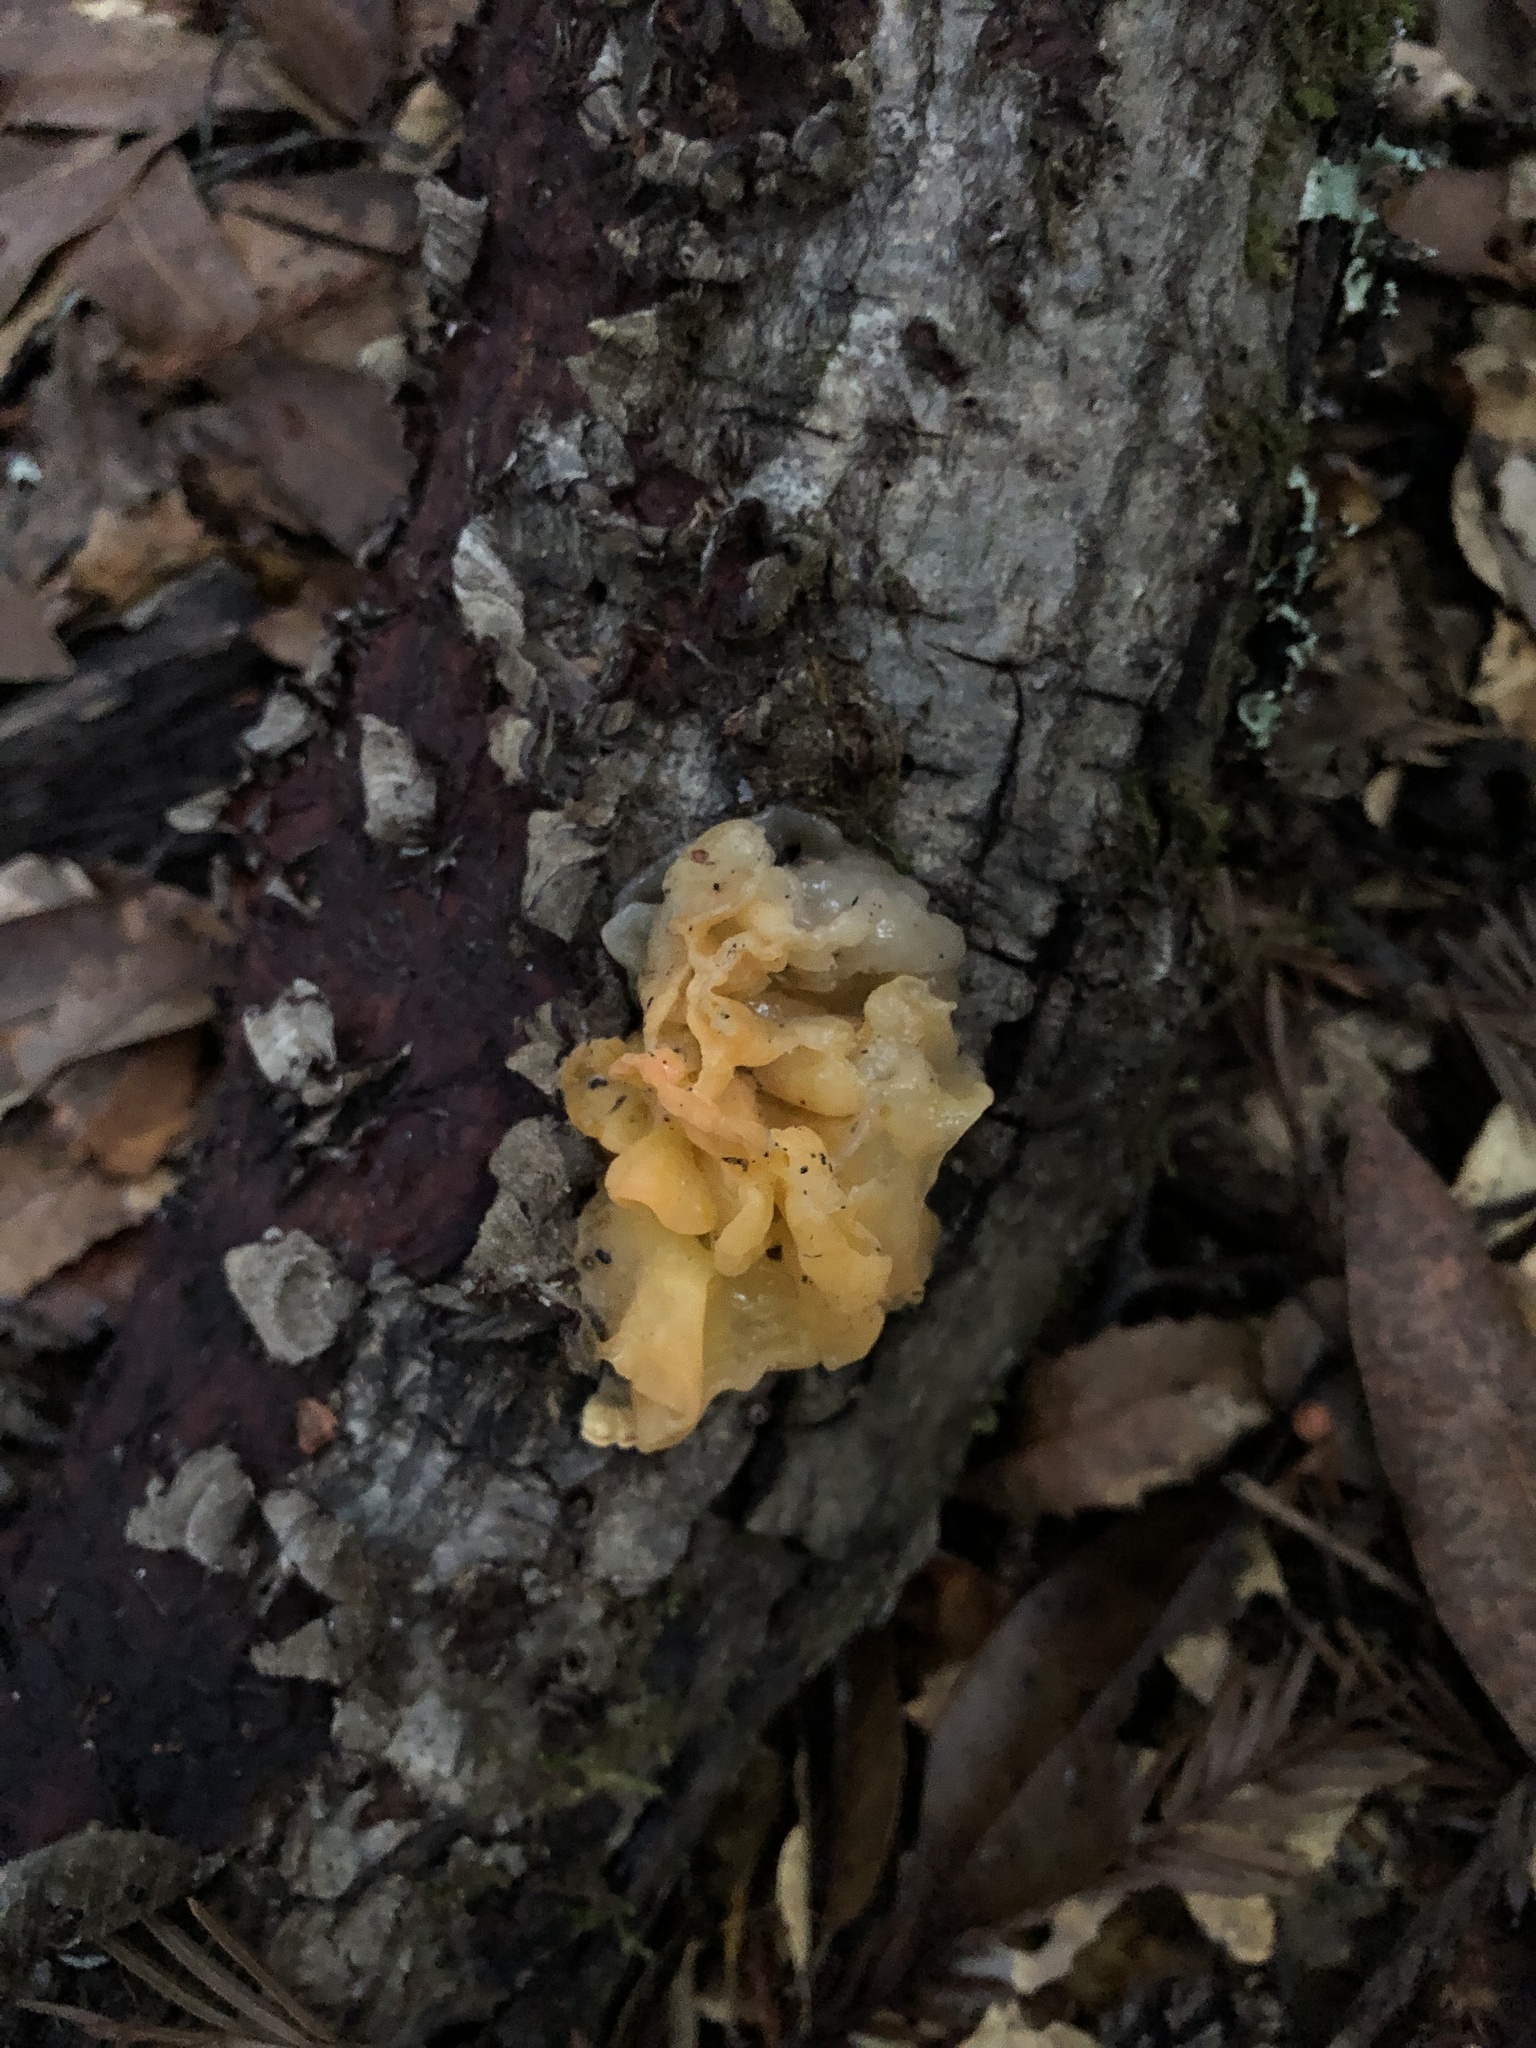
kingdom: Fungi
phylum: Basidiomycota
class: Tremellomycetes
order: Tremellales
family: Naemateliaceae
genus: Naematelia
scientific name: Naematelia aurantia
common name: Golden ear
